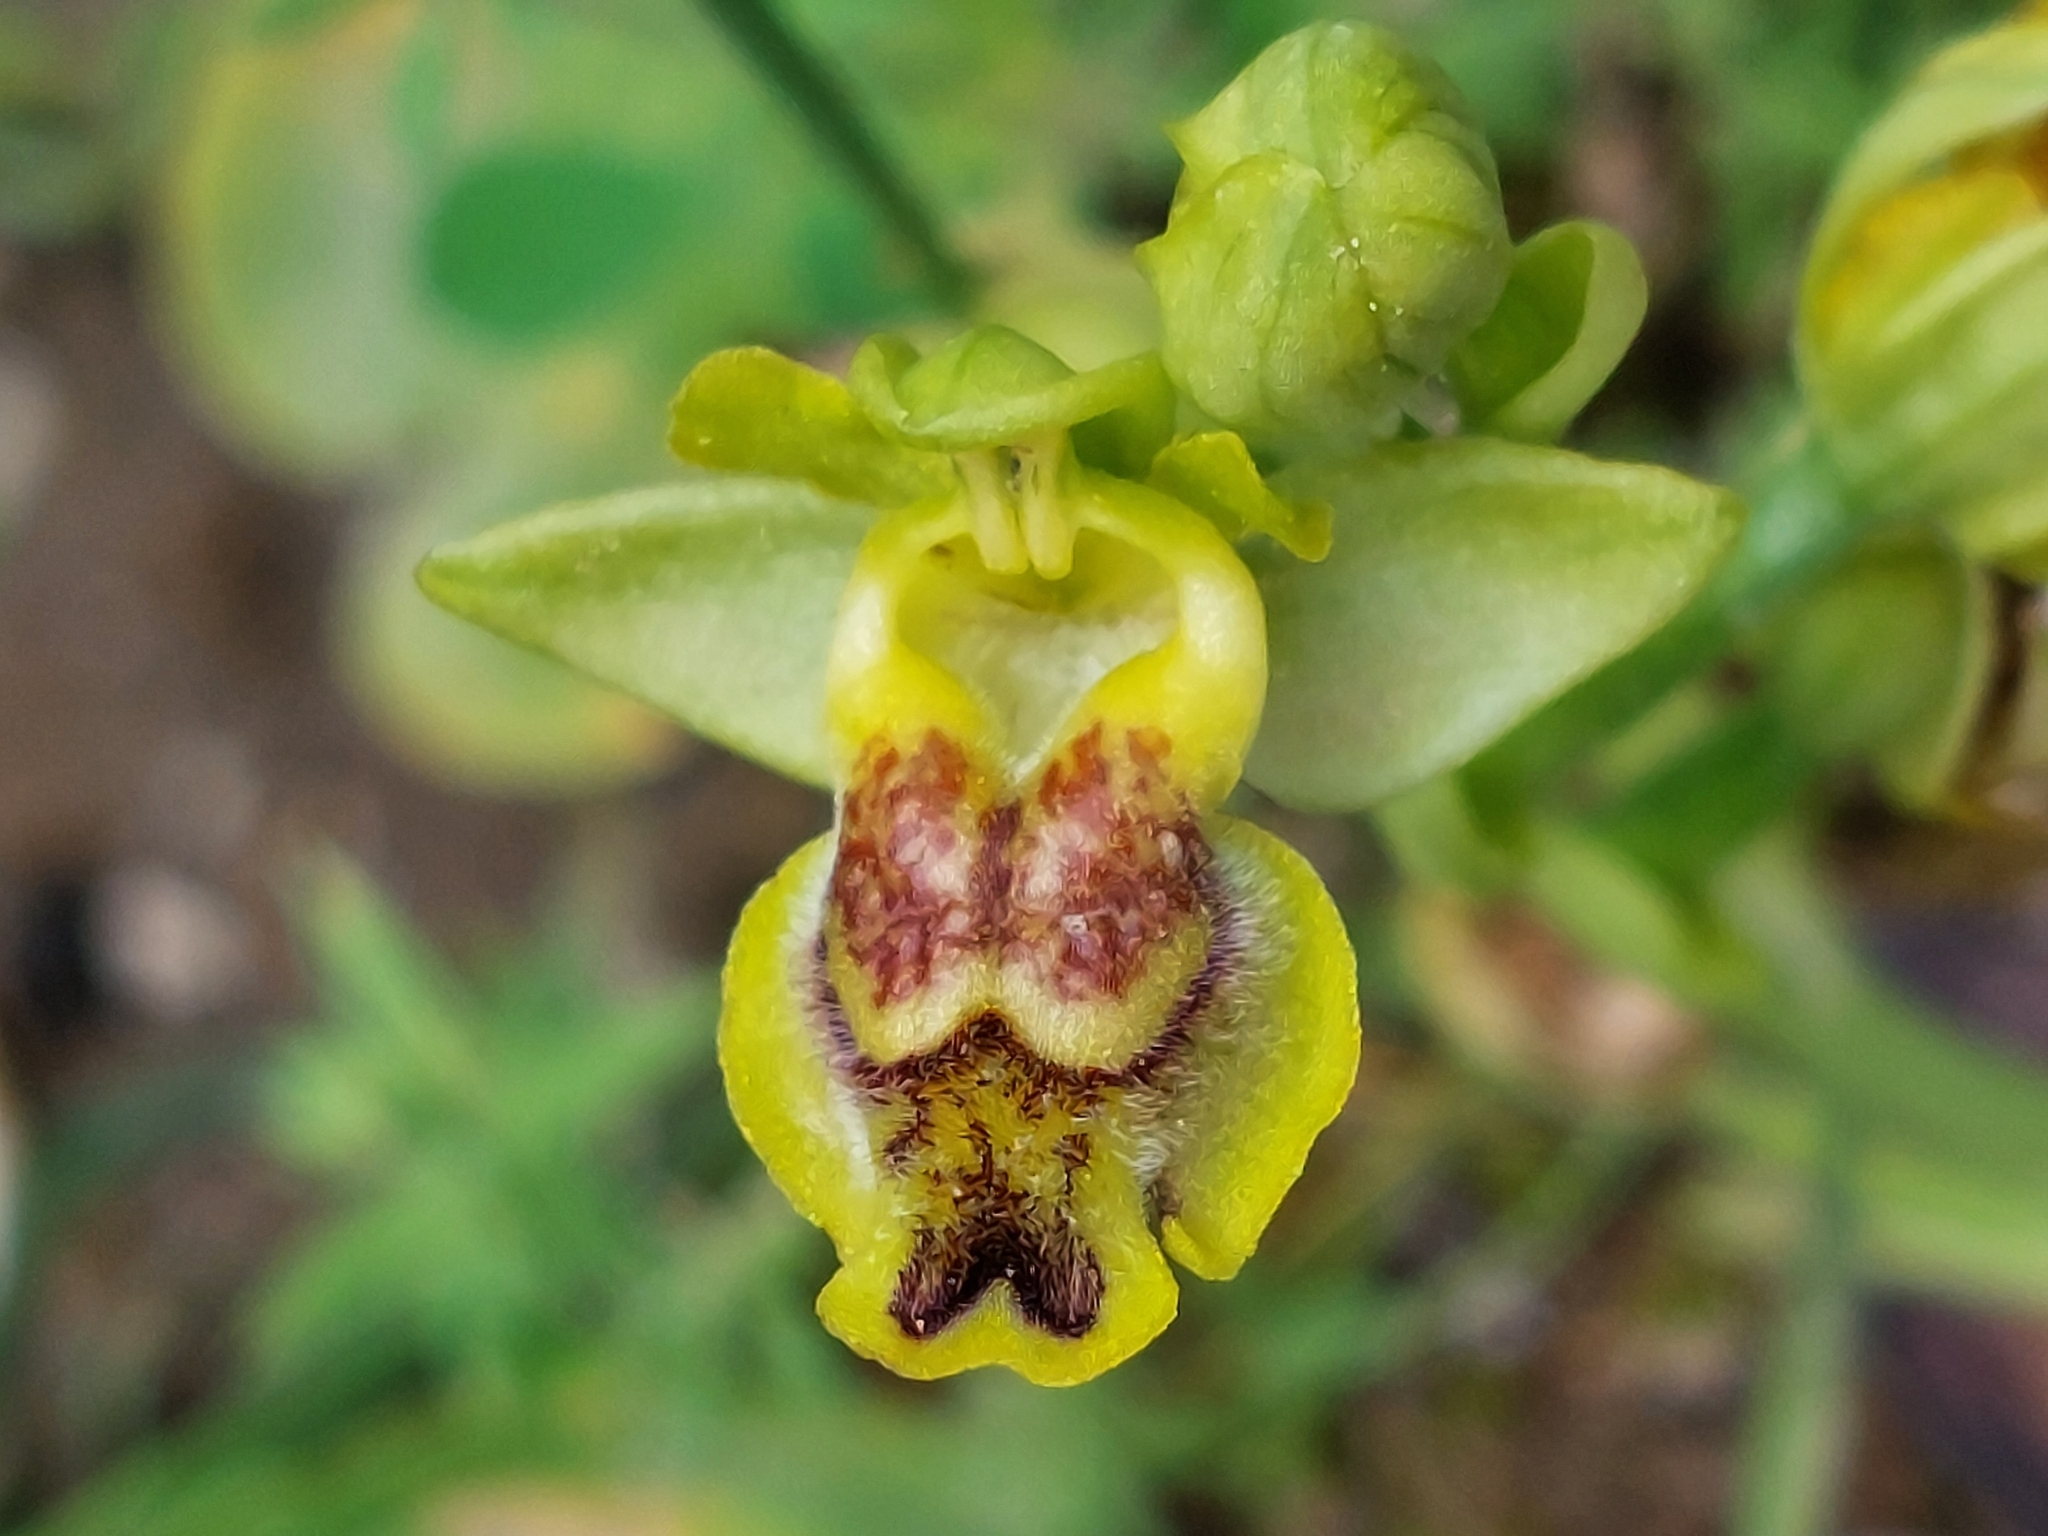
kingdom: Plantae
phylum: Tracheophyta
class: Liliopsida
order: Asparagales
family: Orchidaceae
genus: Ophrys
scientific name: Ophrys lutea
